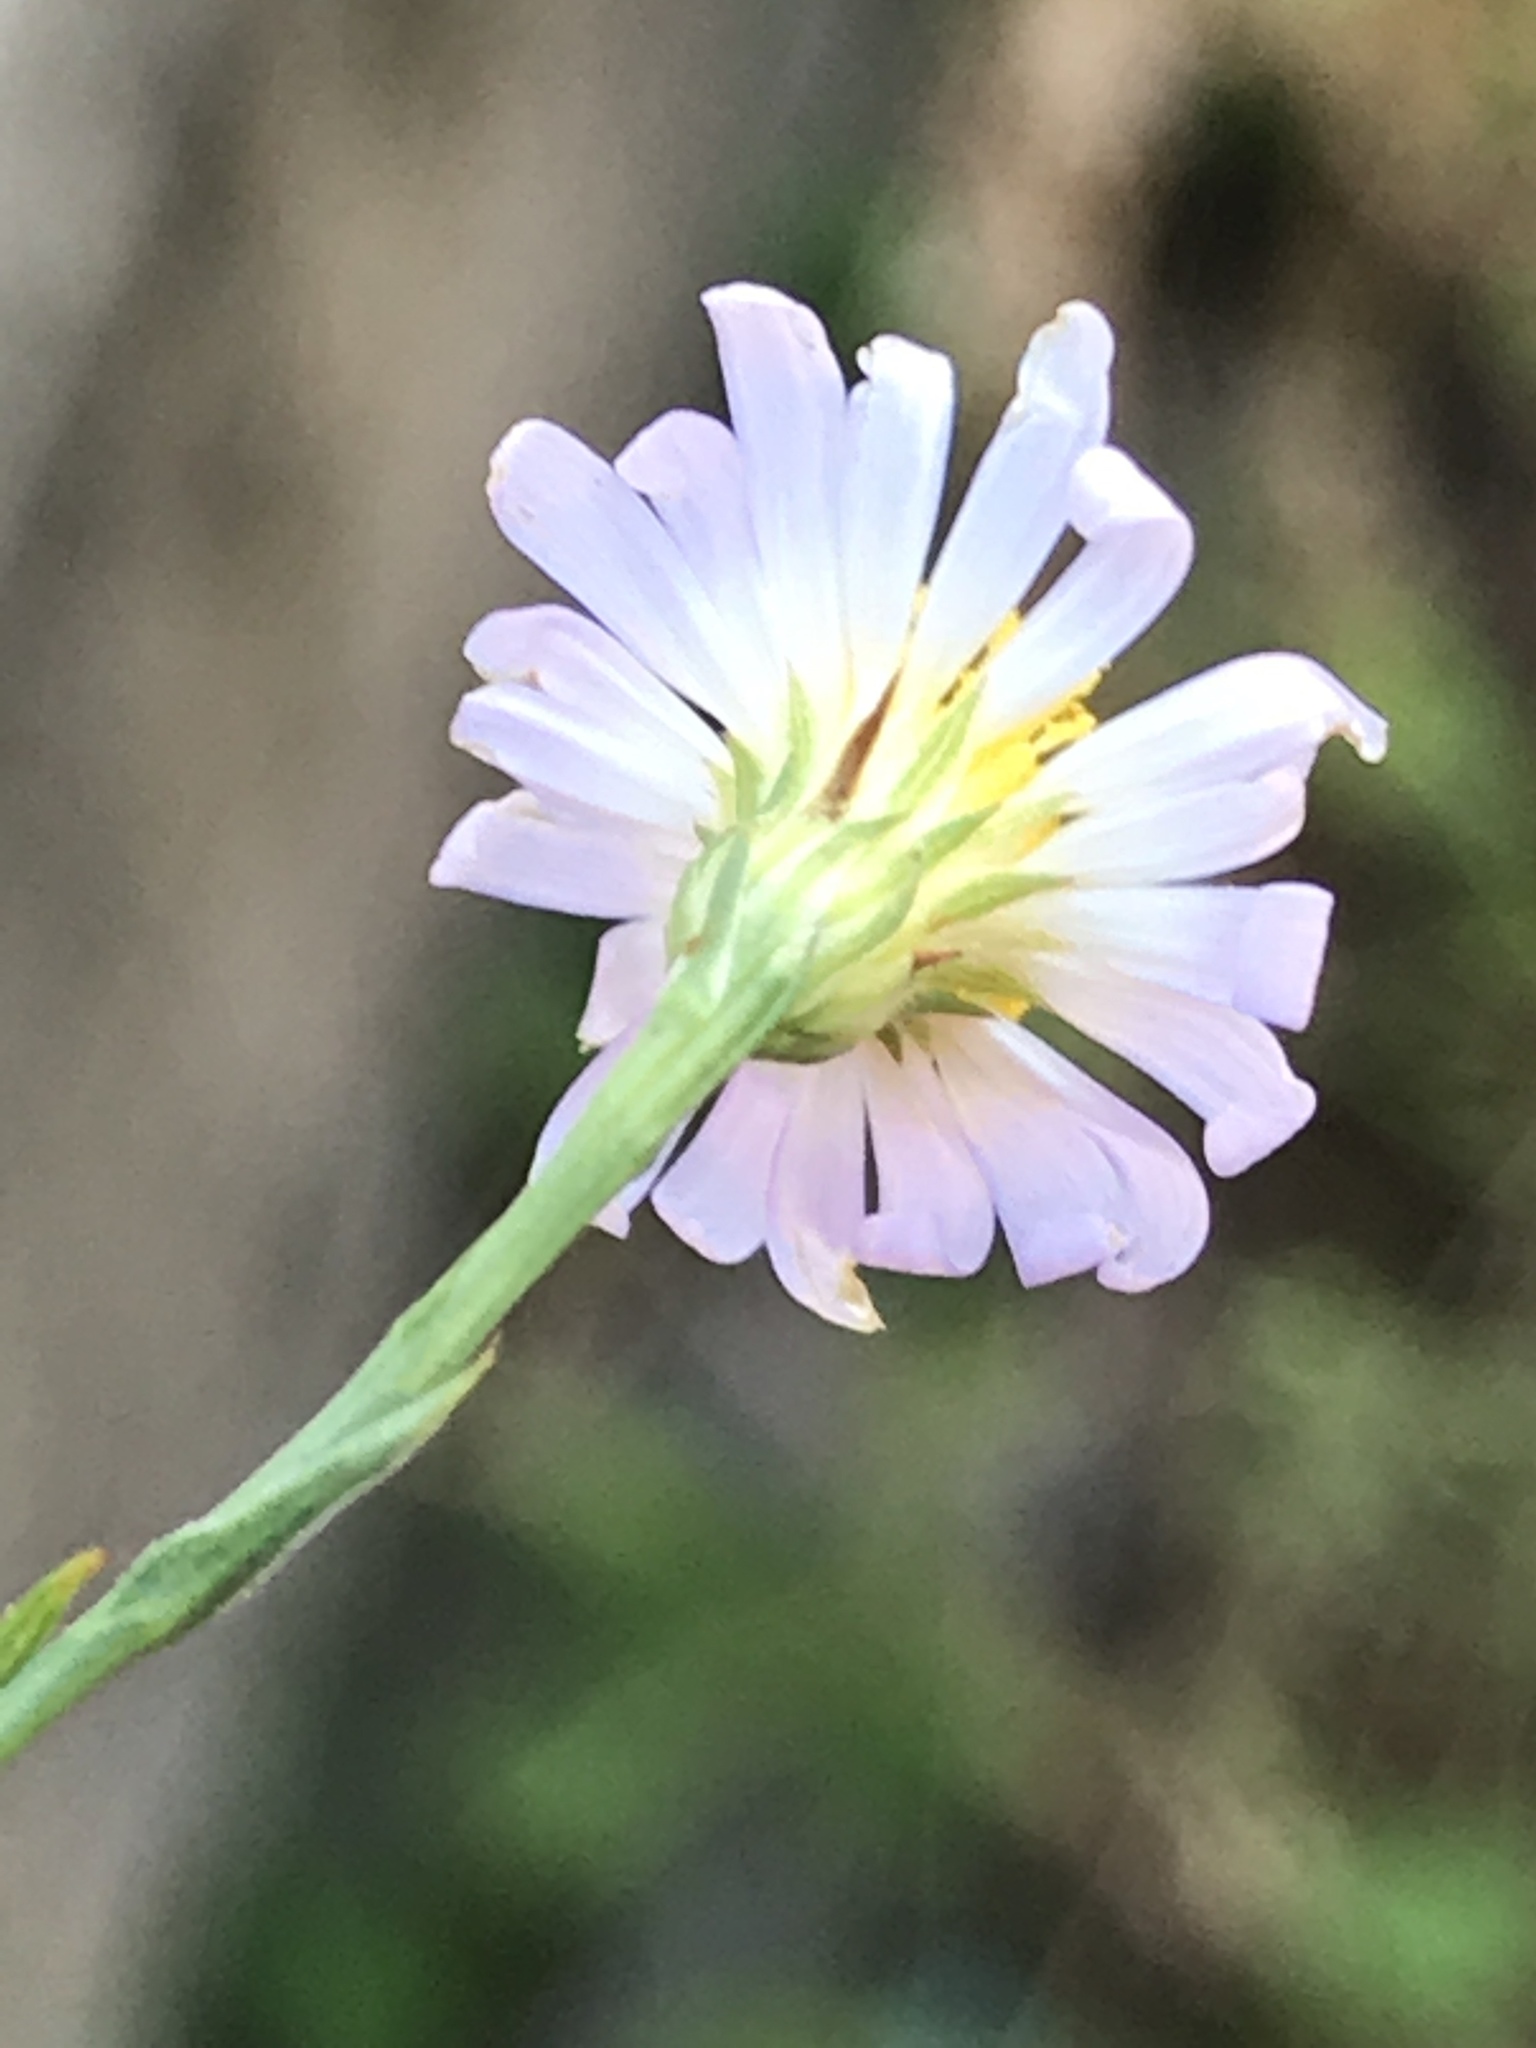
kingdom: Plantae
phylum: Tracheophyta
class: Magnoliopsida
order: Asterales
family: Asteraceae
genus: Symphyotrichum
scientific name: Symphyotrichum divaricatum
